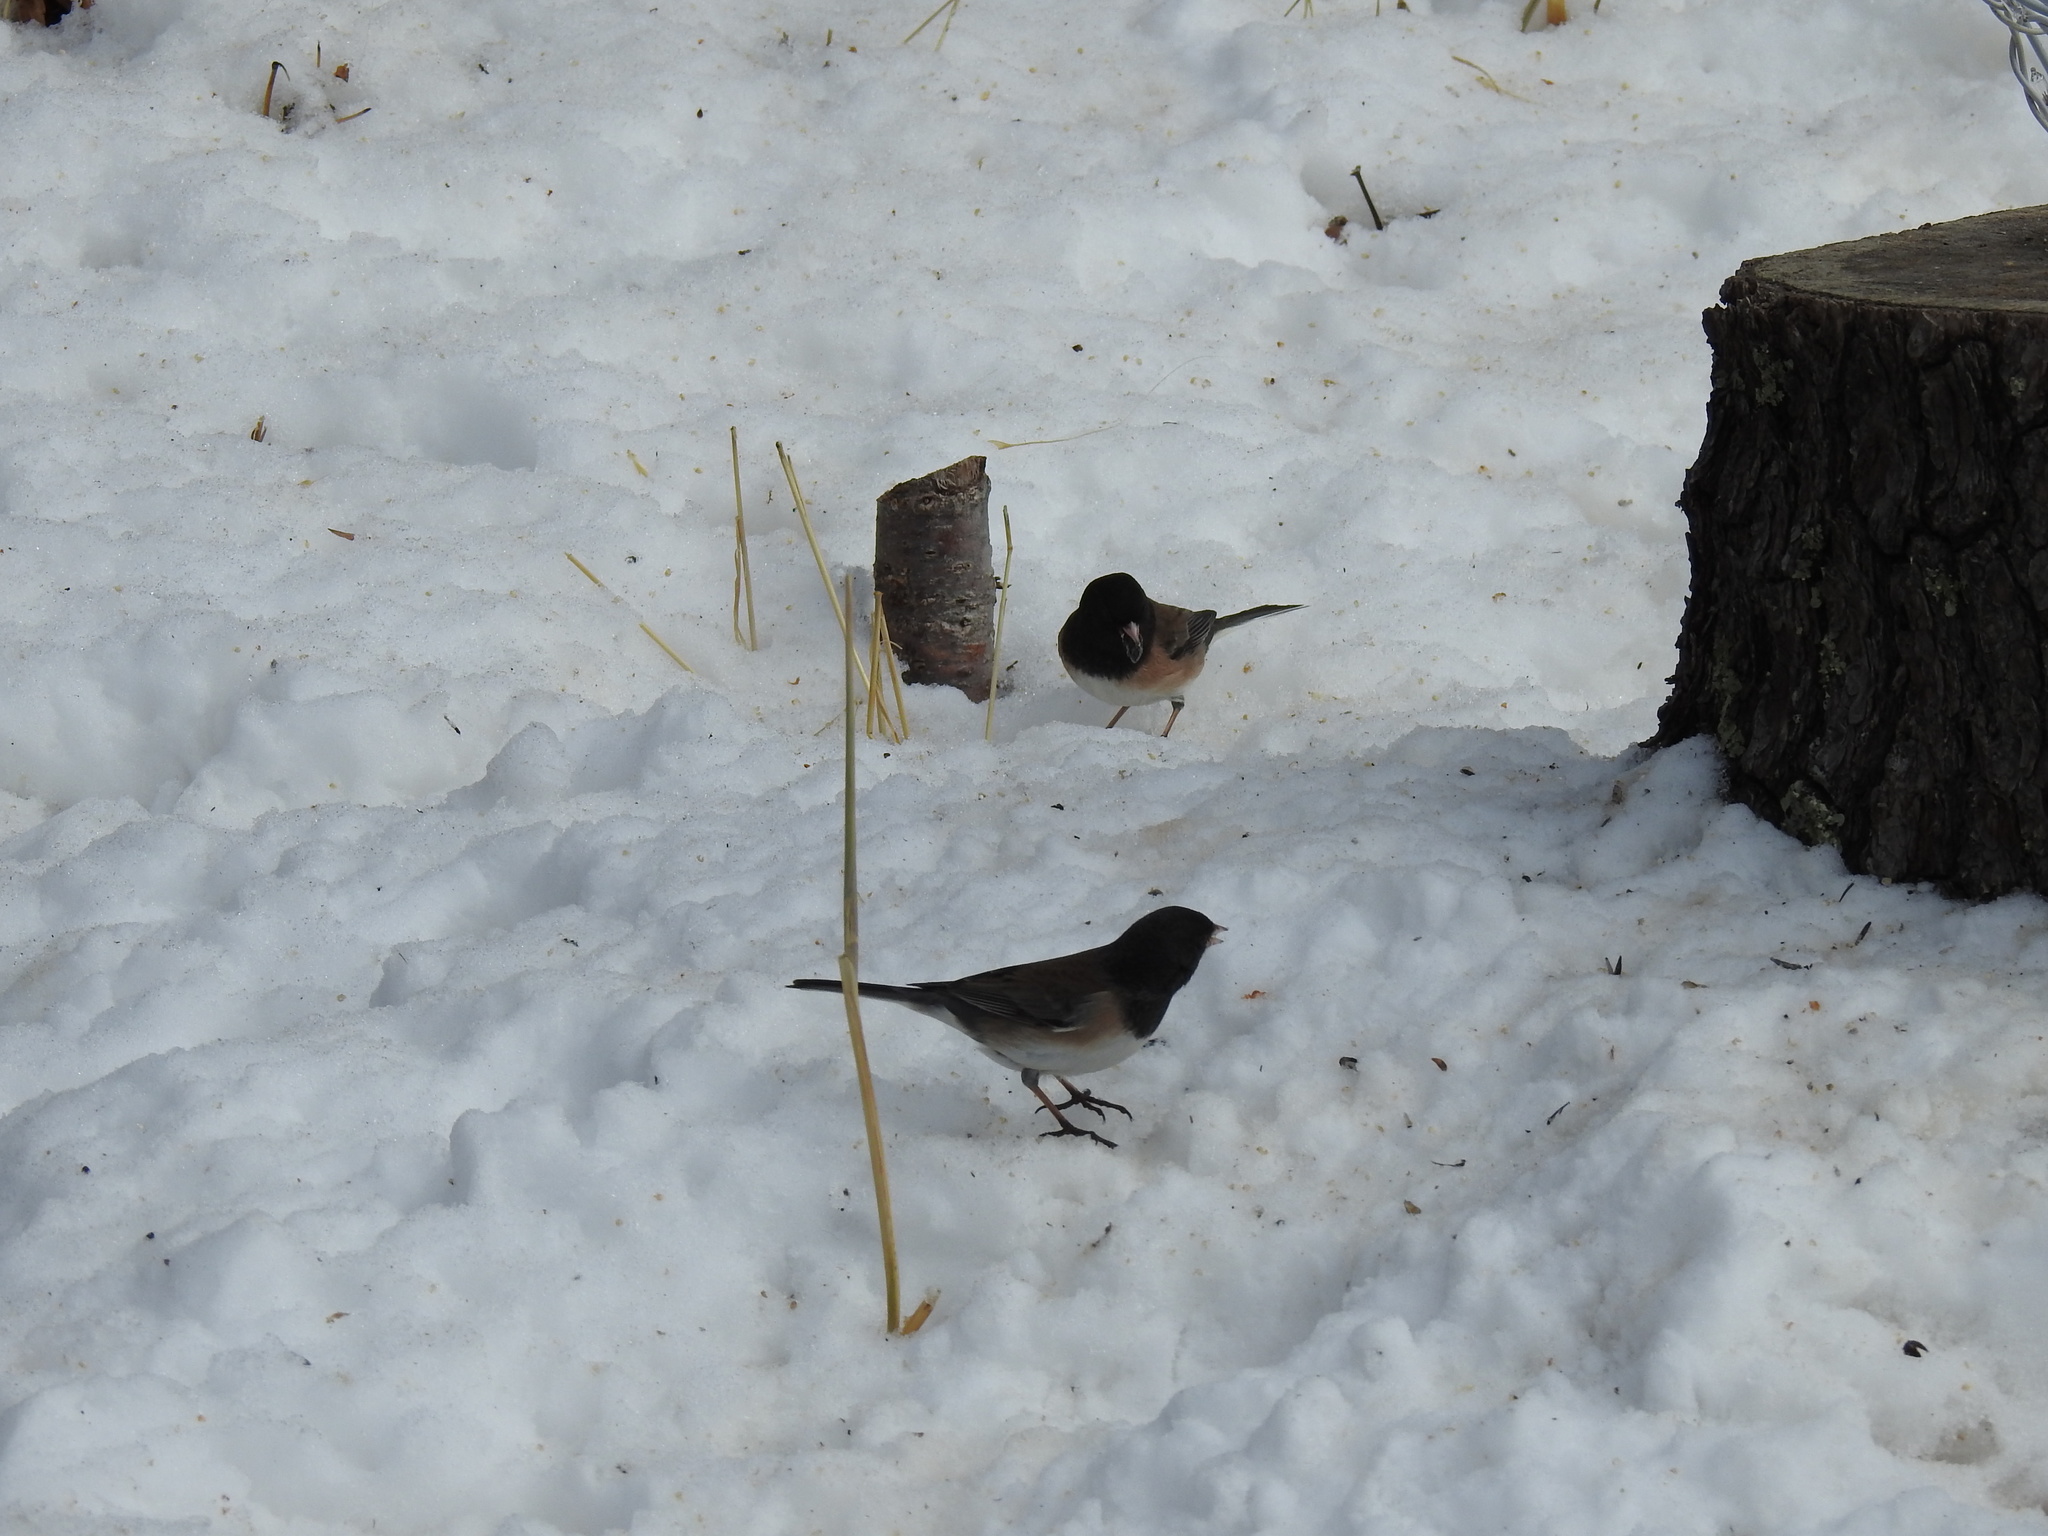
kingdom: Animalia
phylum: Chordata
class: Aves
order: Passeriformes
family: Passerellidae
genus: Junco
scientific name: Junco hyemalis
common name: Dark-eyed junco
